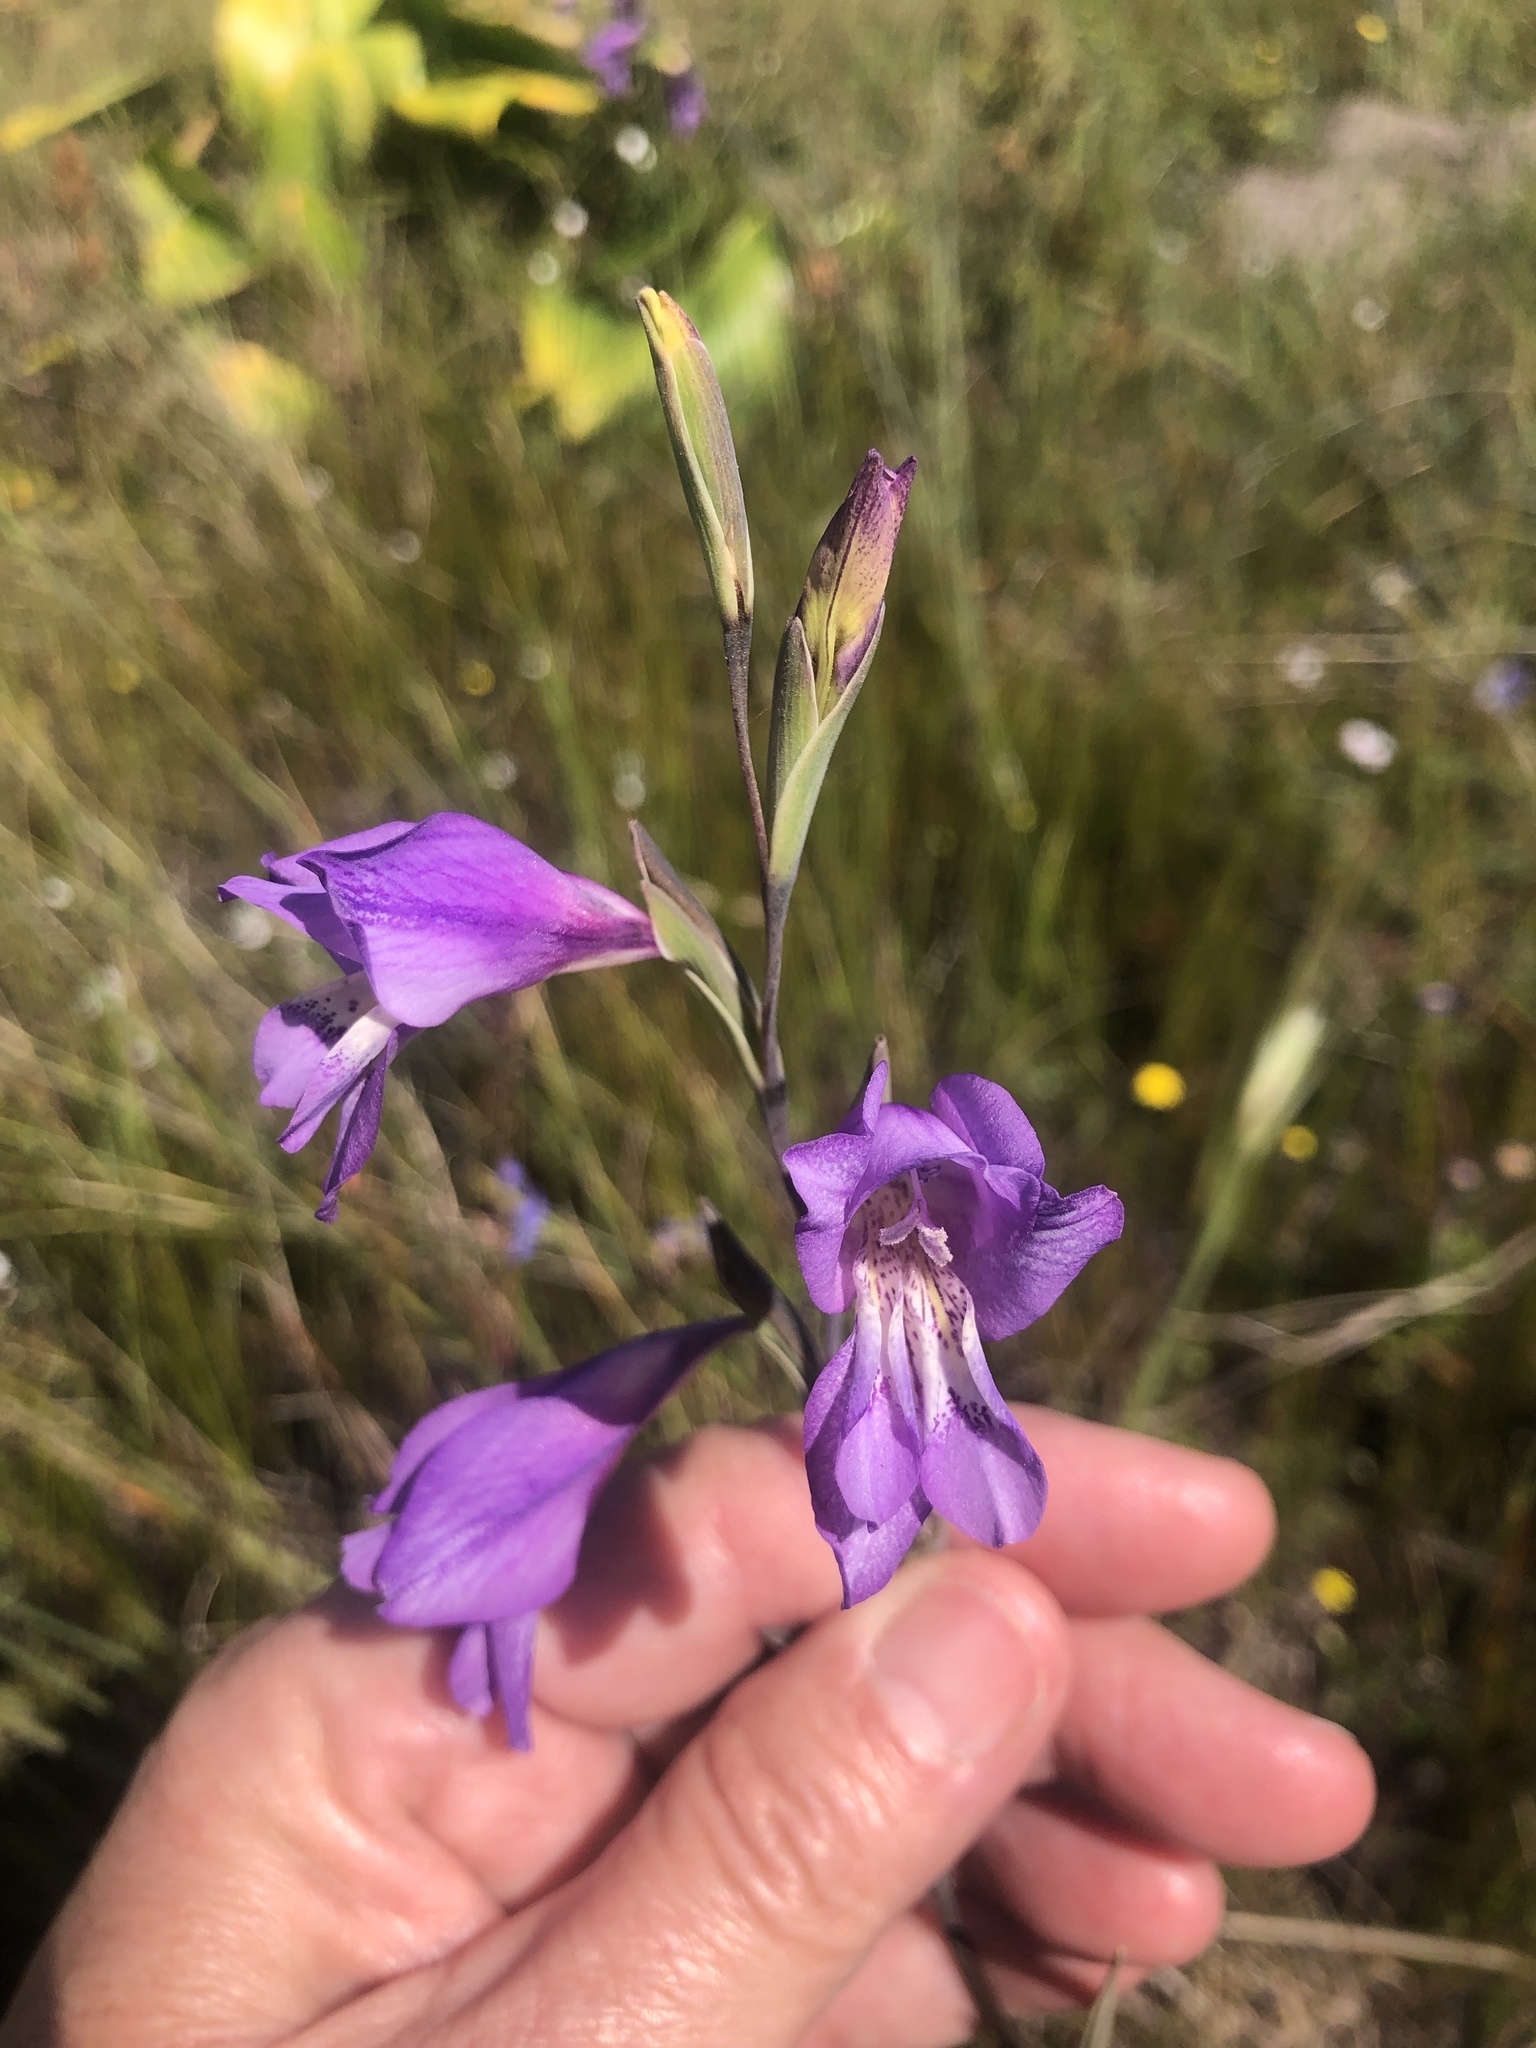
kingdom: Plantae
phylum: Tracheophyta
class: Liliopsida
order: Asparagales
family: Iridaceae
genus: Gladiolus
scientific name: Gladiolus carinatus
